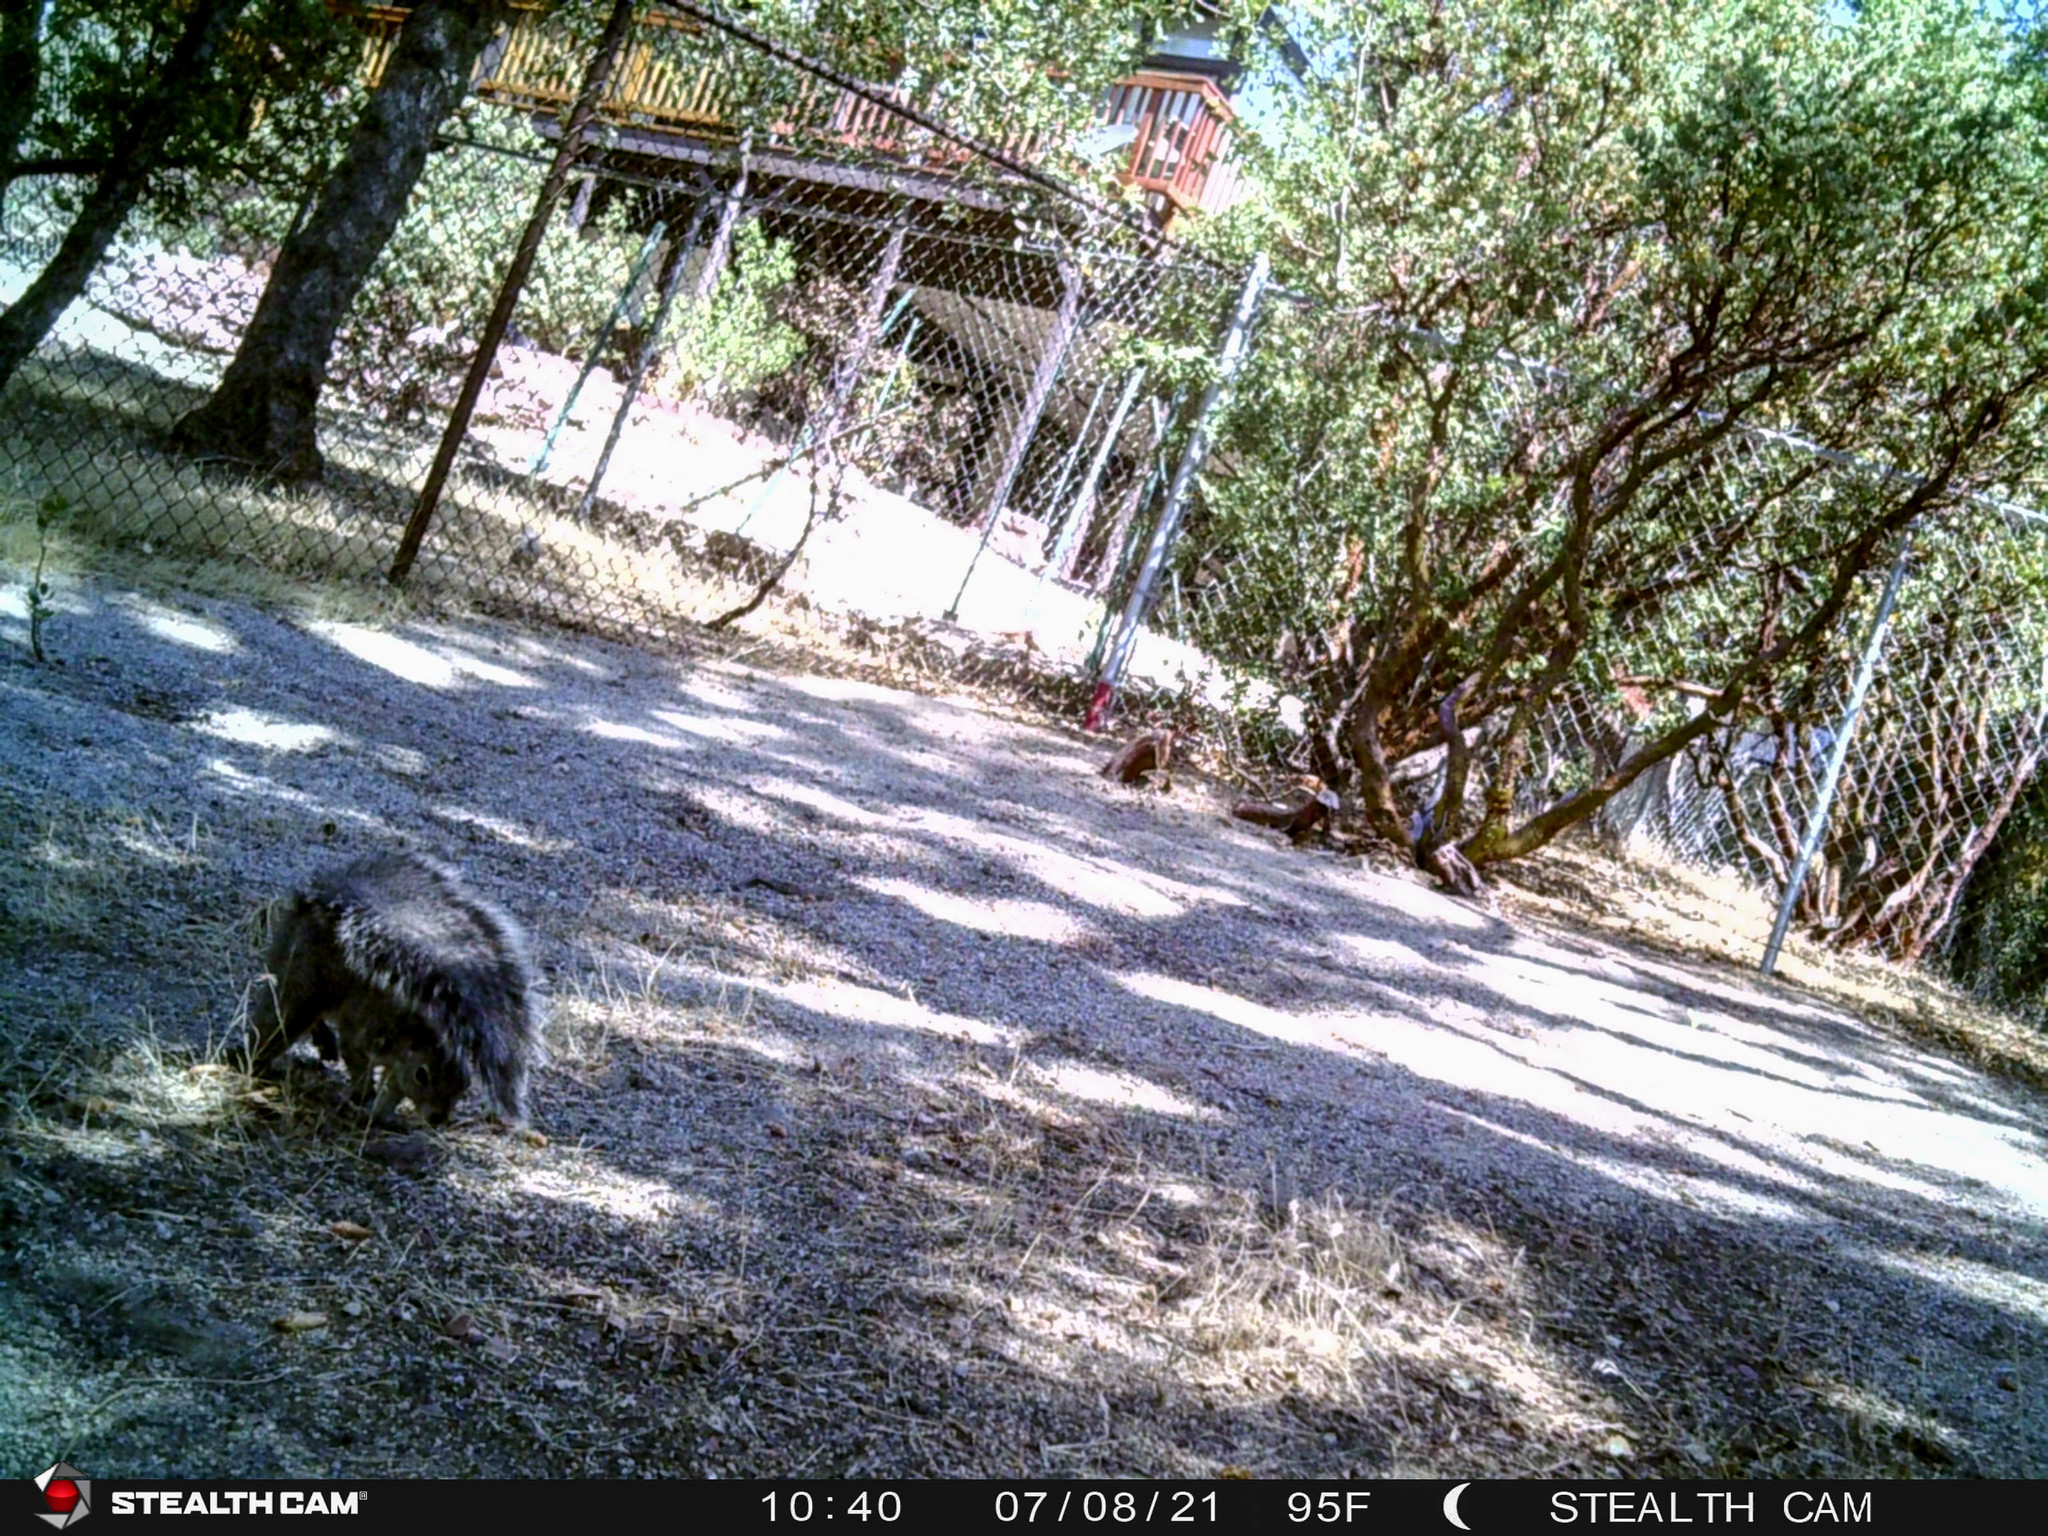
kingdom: Animalia
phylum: Chordata
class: Mammalia
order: Rodentia
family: Sciuridae
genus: Sciurus
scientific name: Sciurus griseus
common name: Western gray squirrel
